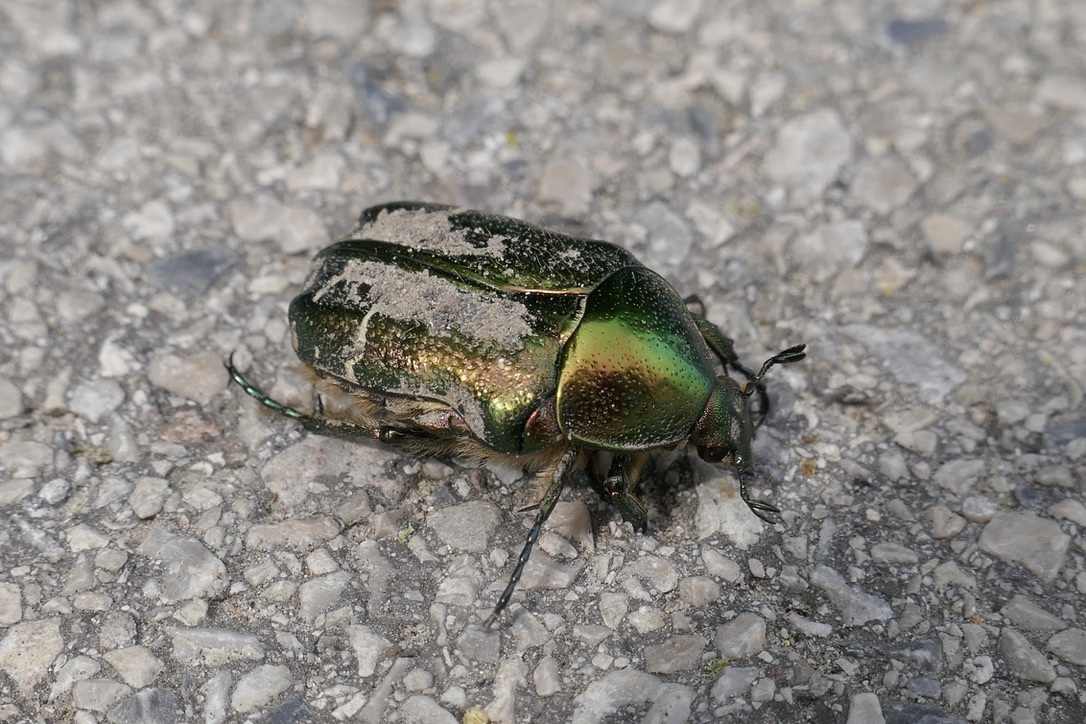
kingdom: Animalia
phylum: Arthropoda
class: Insecta
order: Coleoptera
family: Scarabaeidae
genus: Cetonia
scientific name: Cetonia aurata
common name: Rose chafer
